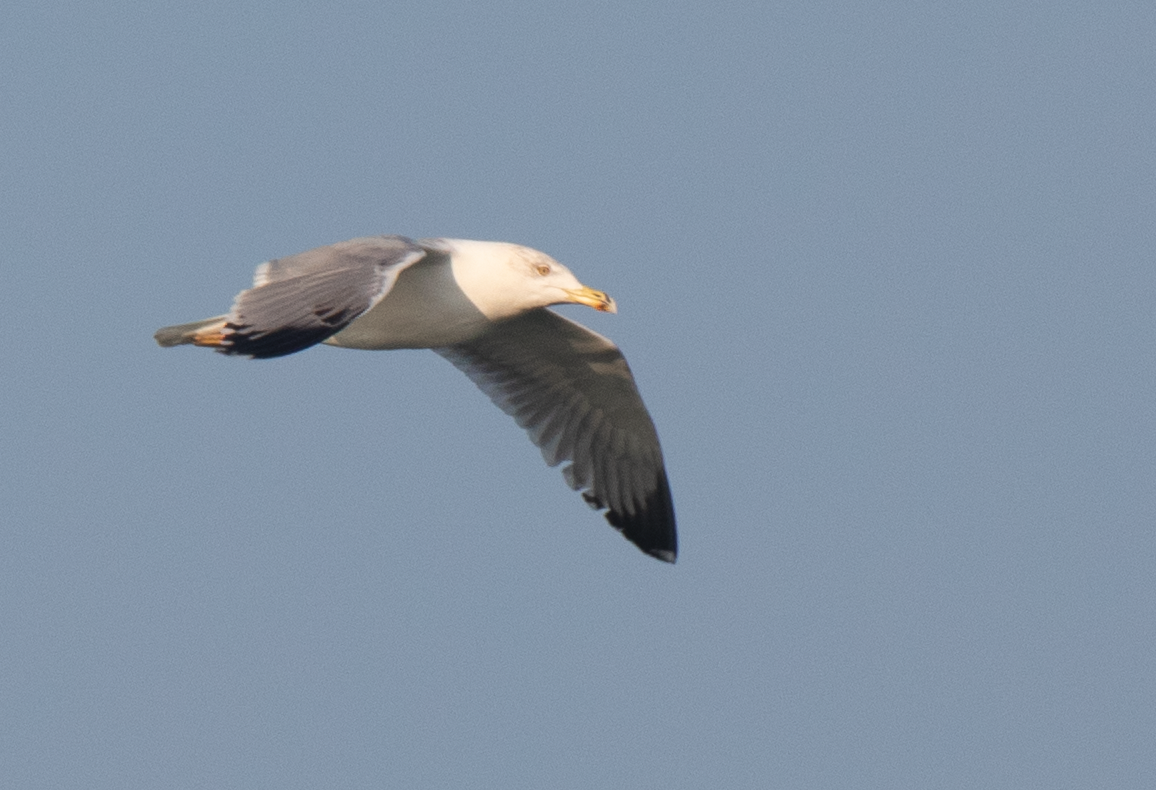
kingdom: Animalia
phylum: Chordata
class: Aves
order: Charadriiformes
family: Laridae
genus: Larus
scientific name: Larus michahellis
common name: Yellow-legged gull
